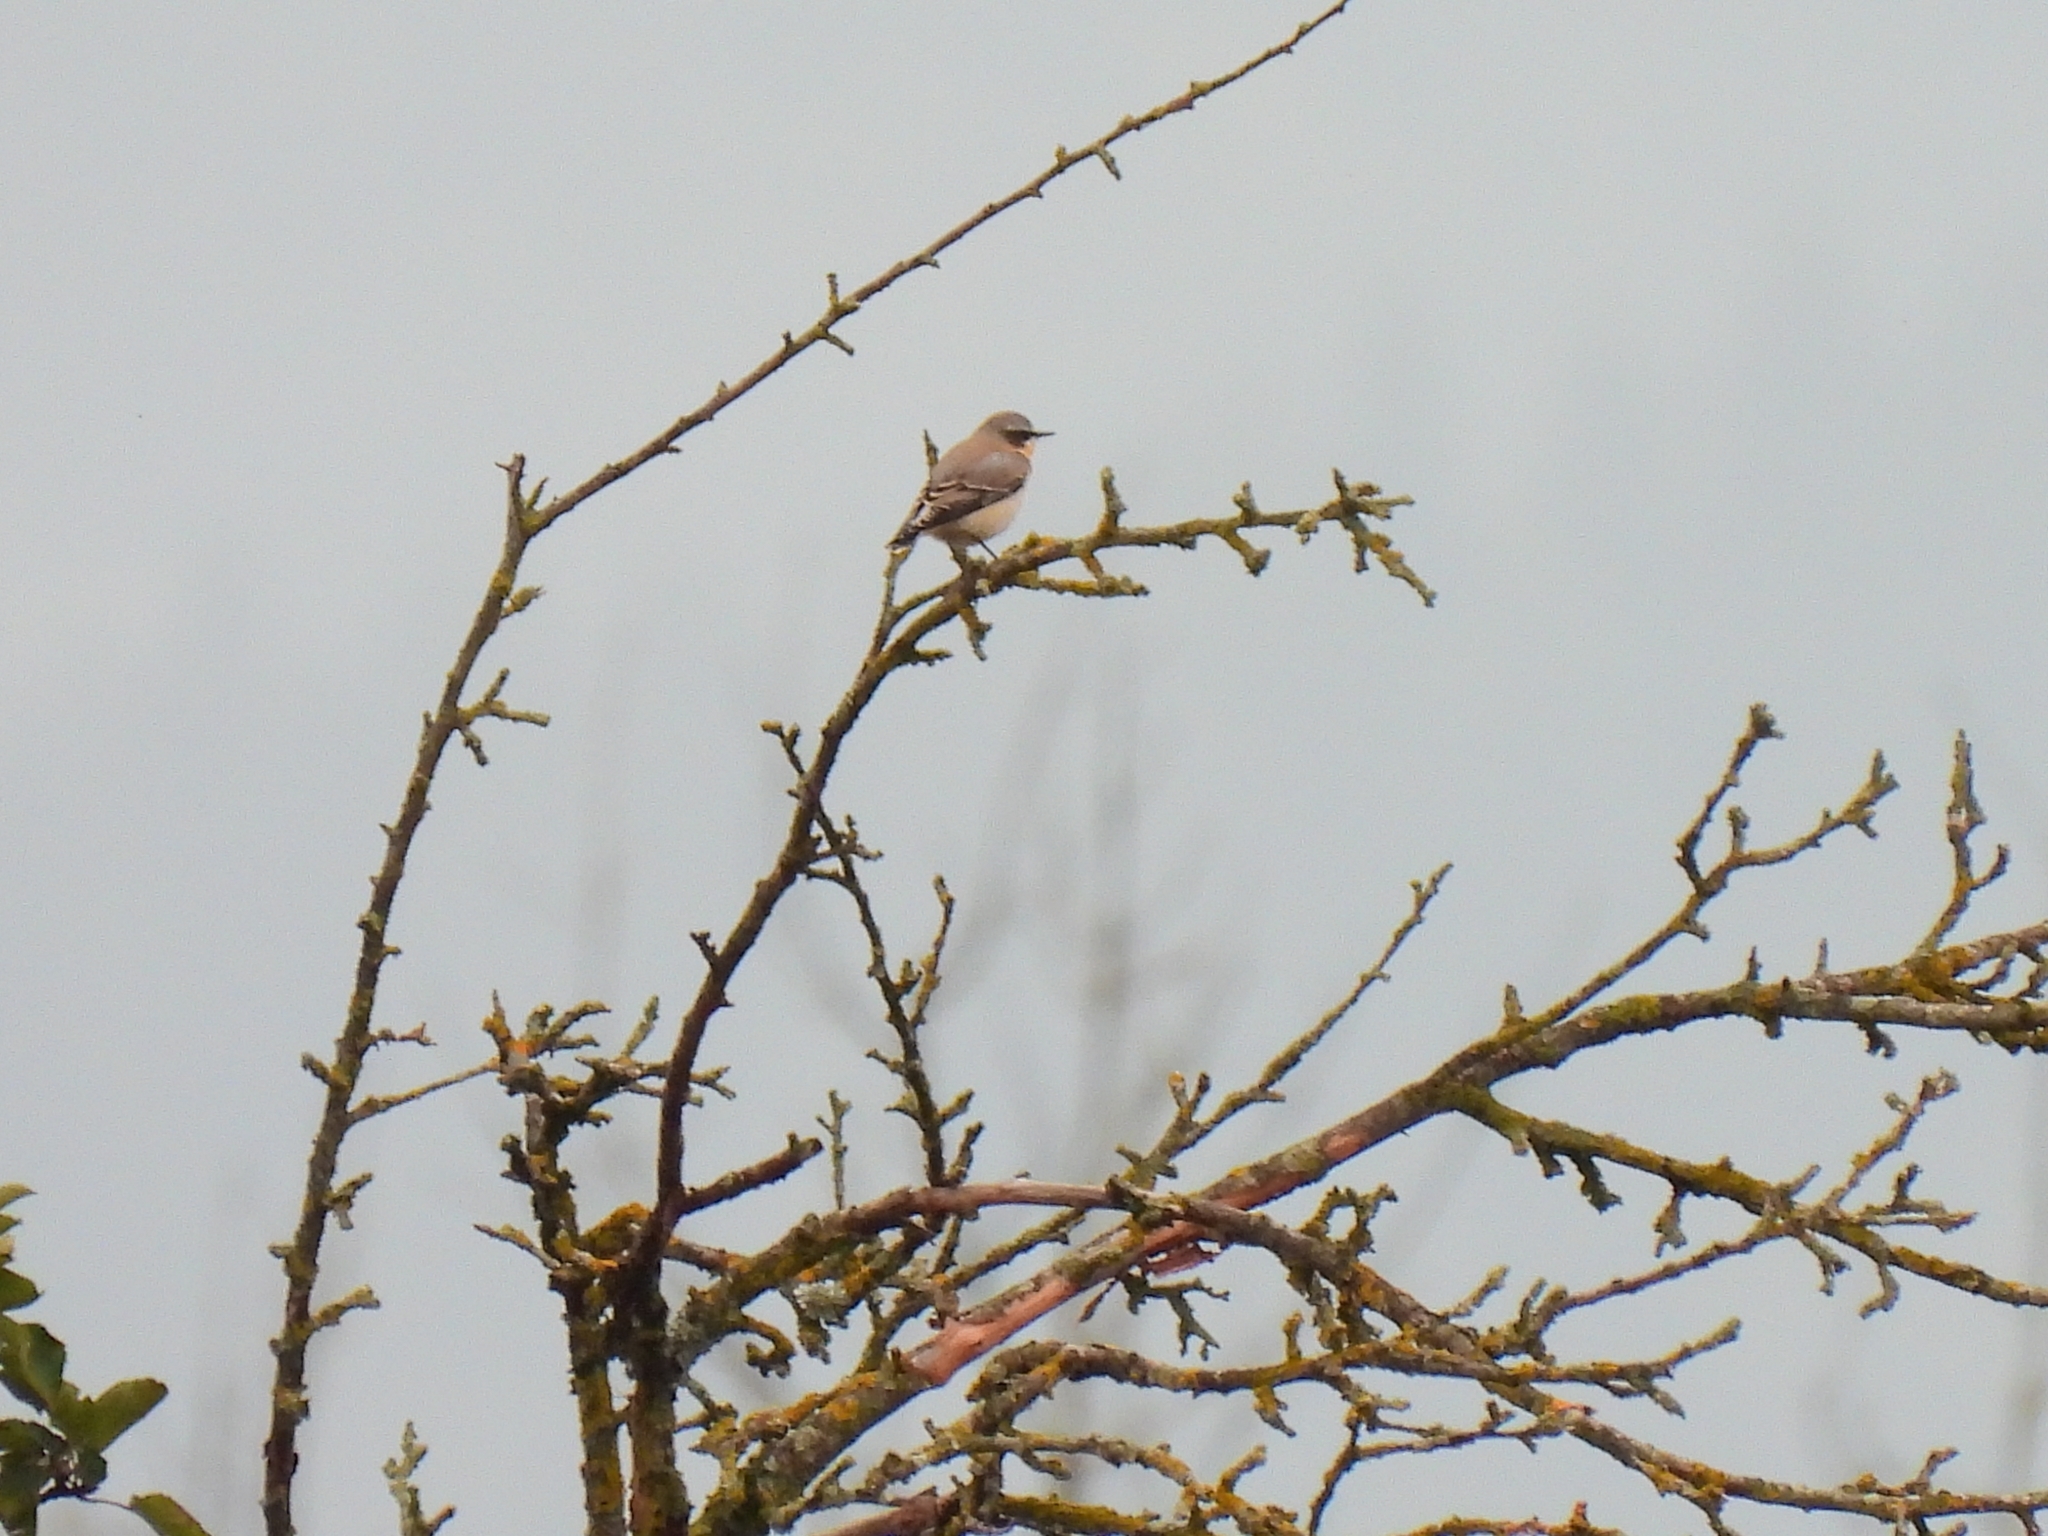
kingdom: Animalia
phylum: Chordata
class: Aves
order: Passeriformes
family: Muscicapidae
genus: Oenanthe
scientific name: Oenanthe oenanthe
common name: Northern wheatear
